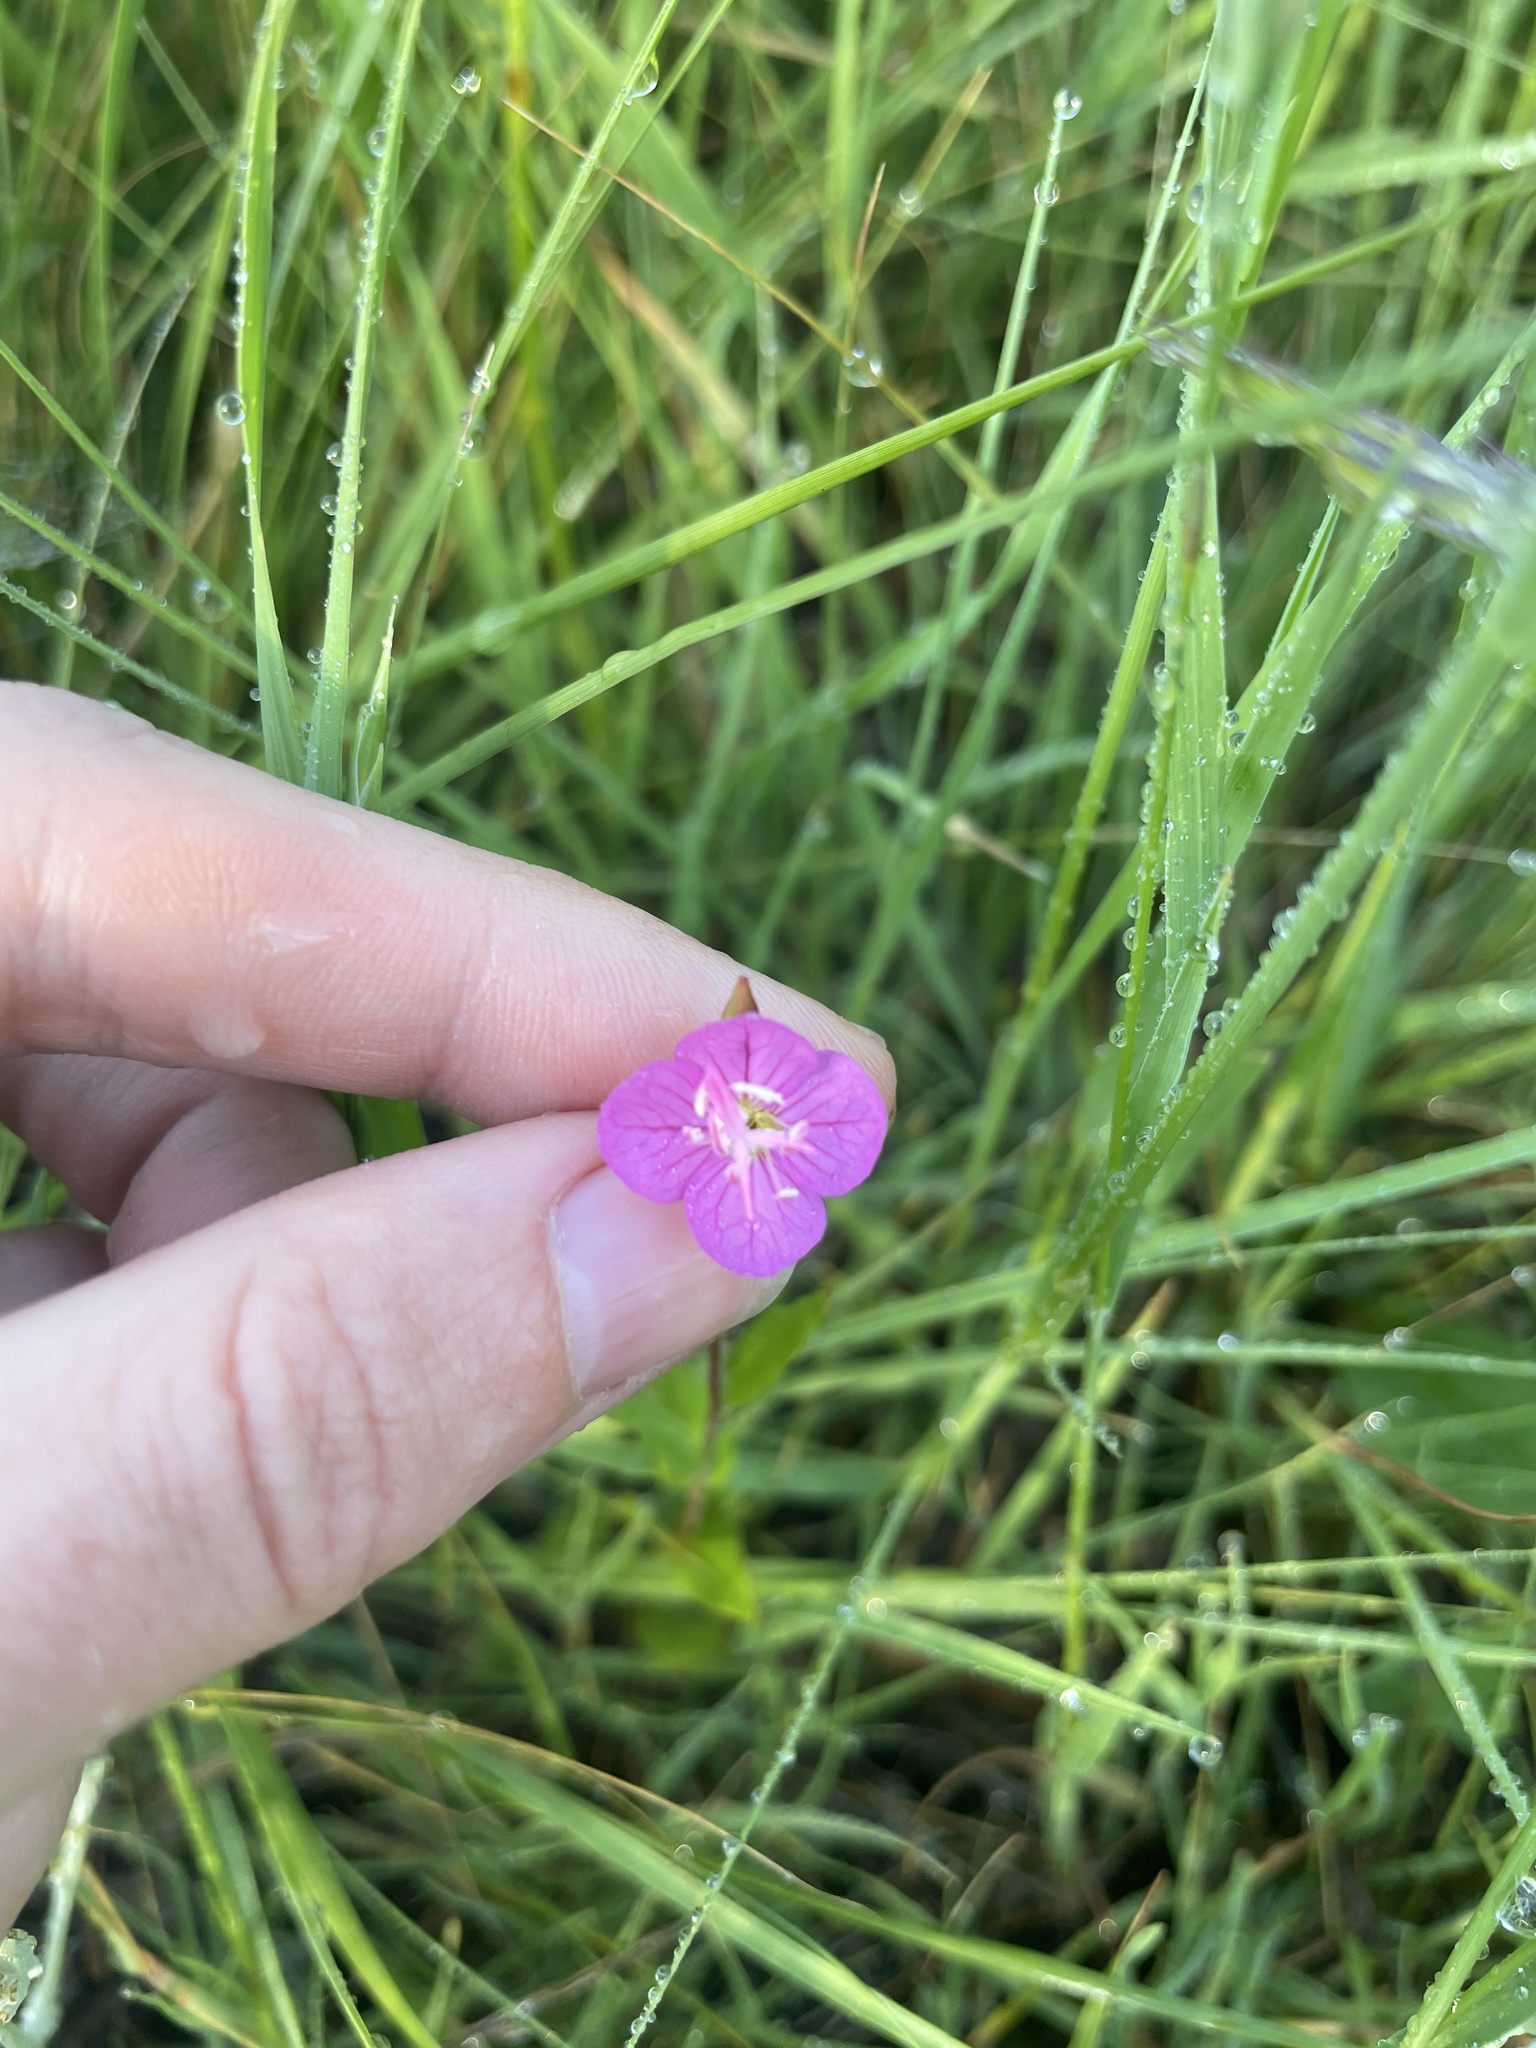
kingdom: Plantae
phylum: Tracheophyta
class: Magnoliopsida
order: Myrtales
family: Onagraceae
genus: Oenothera
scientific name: Oenothera rosea
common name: Rosy evening-primrose
